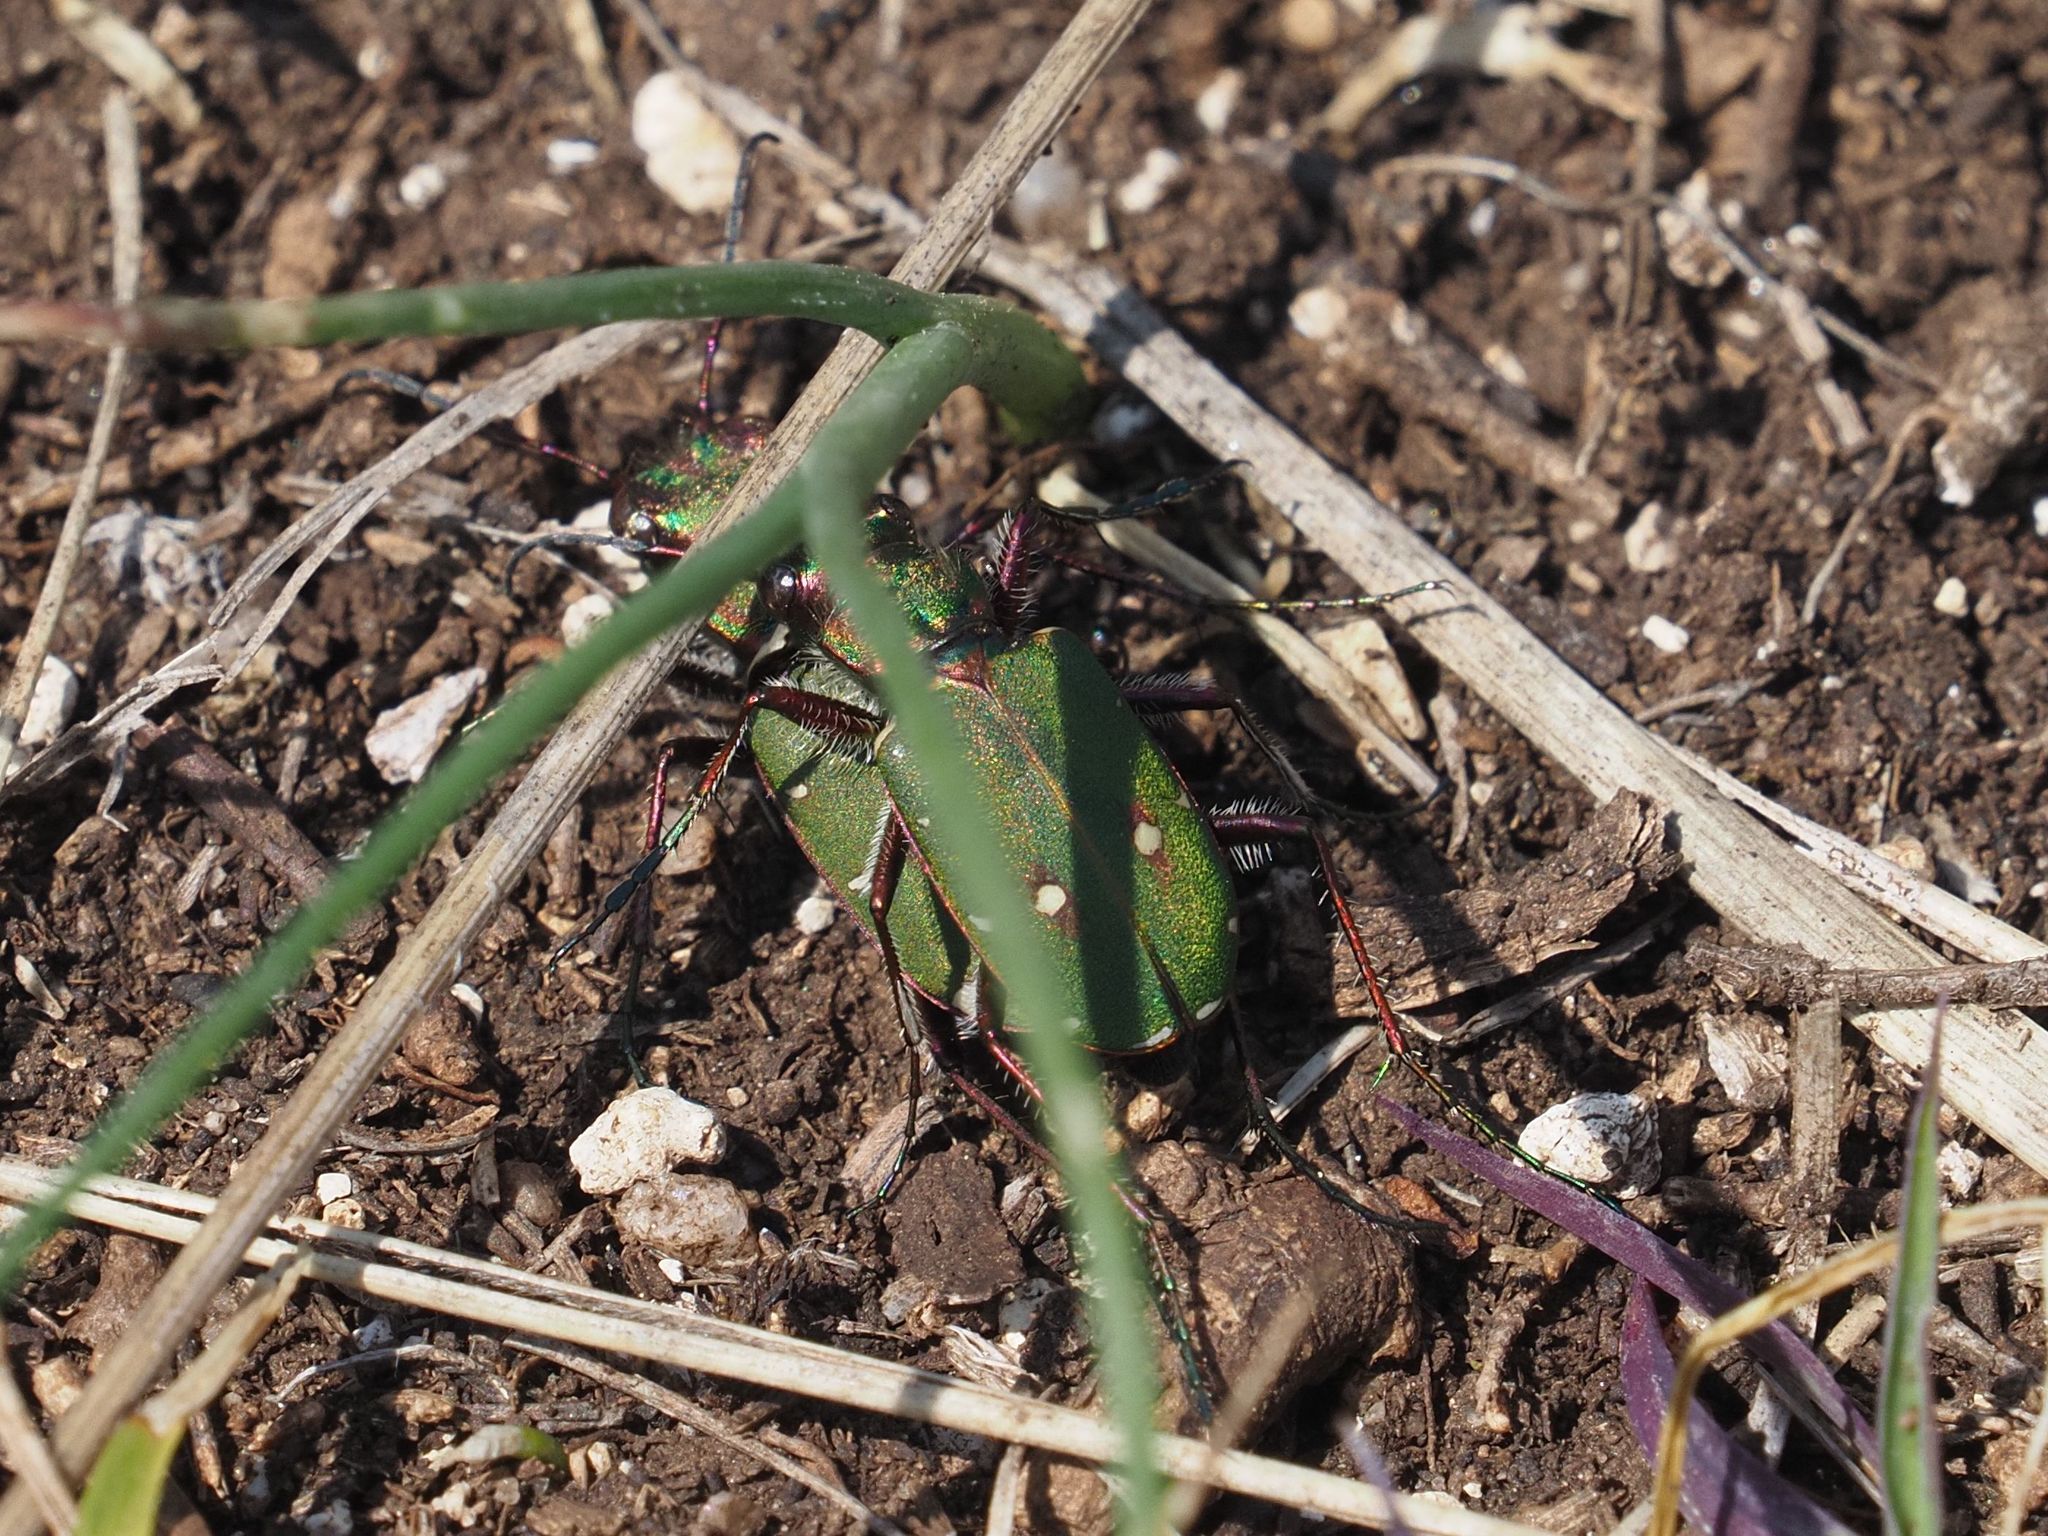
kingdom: Animalia
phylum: Arthropoda
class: Insecta
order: Coleoptera
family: Carabidae
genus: Cicindela
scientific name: Cicindela campestris
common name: Common tiger beetle
